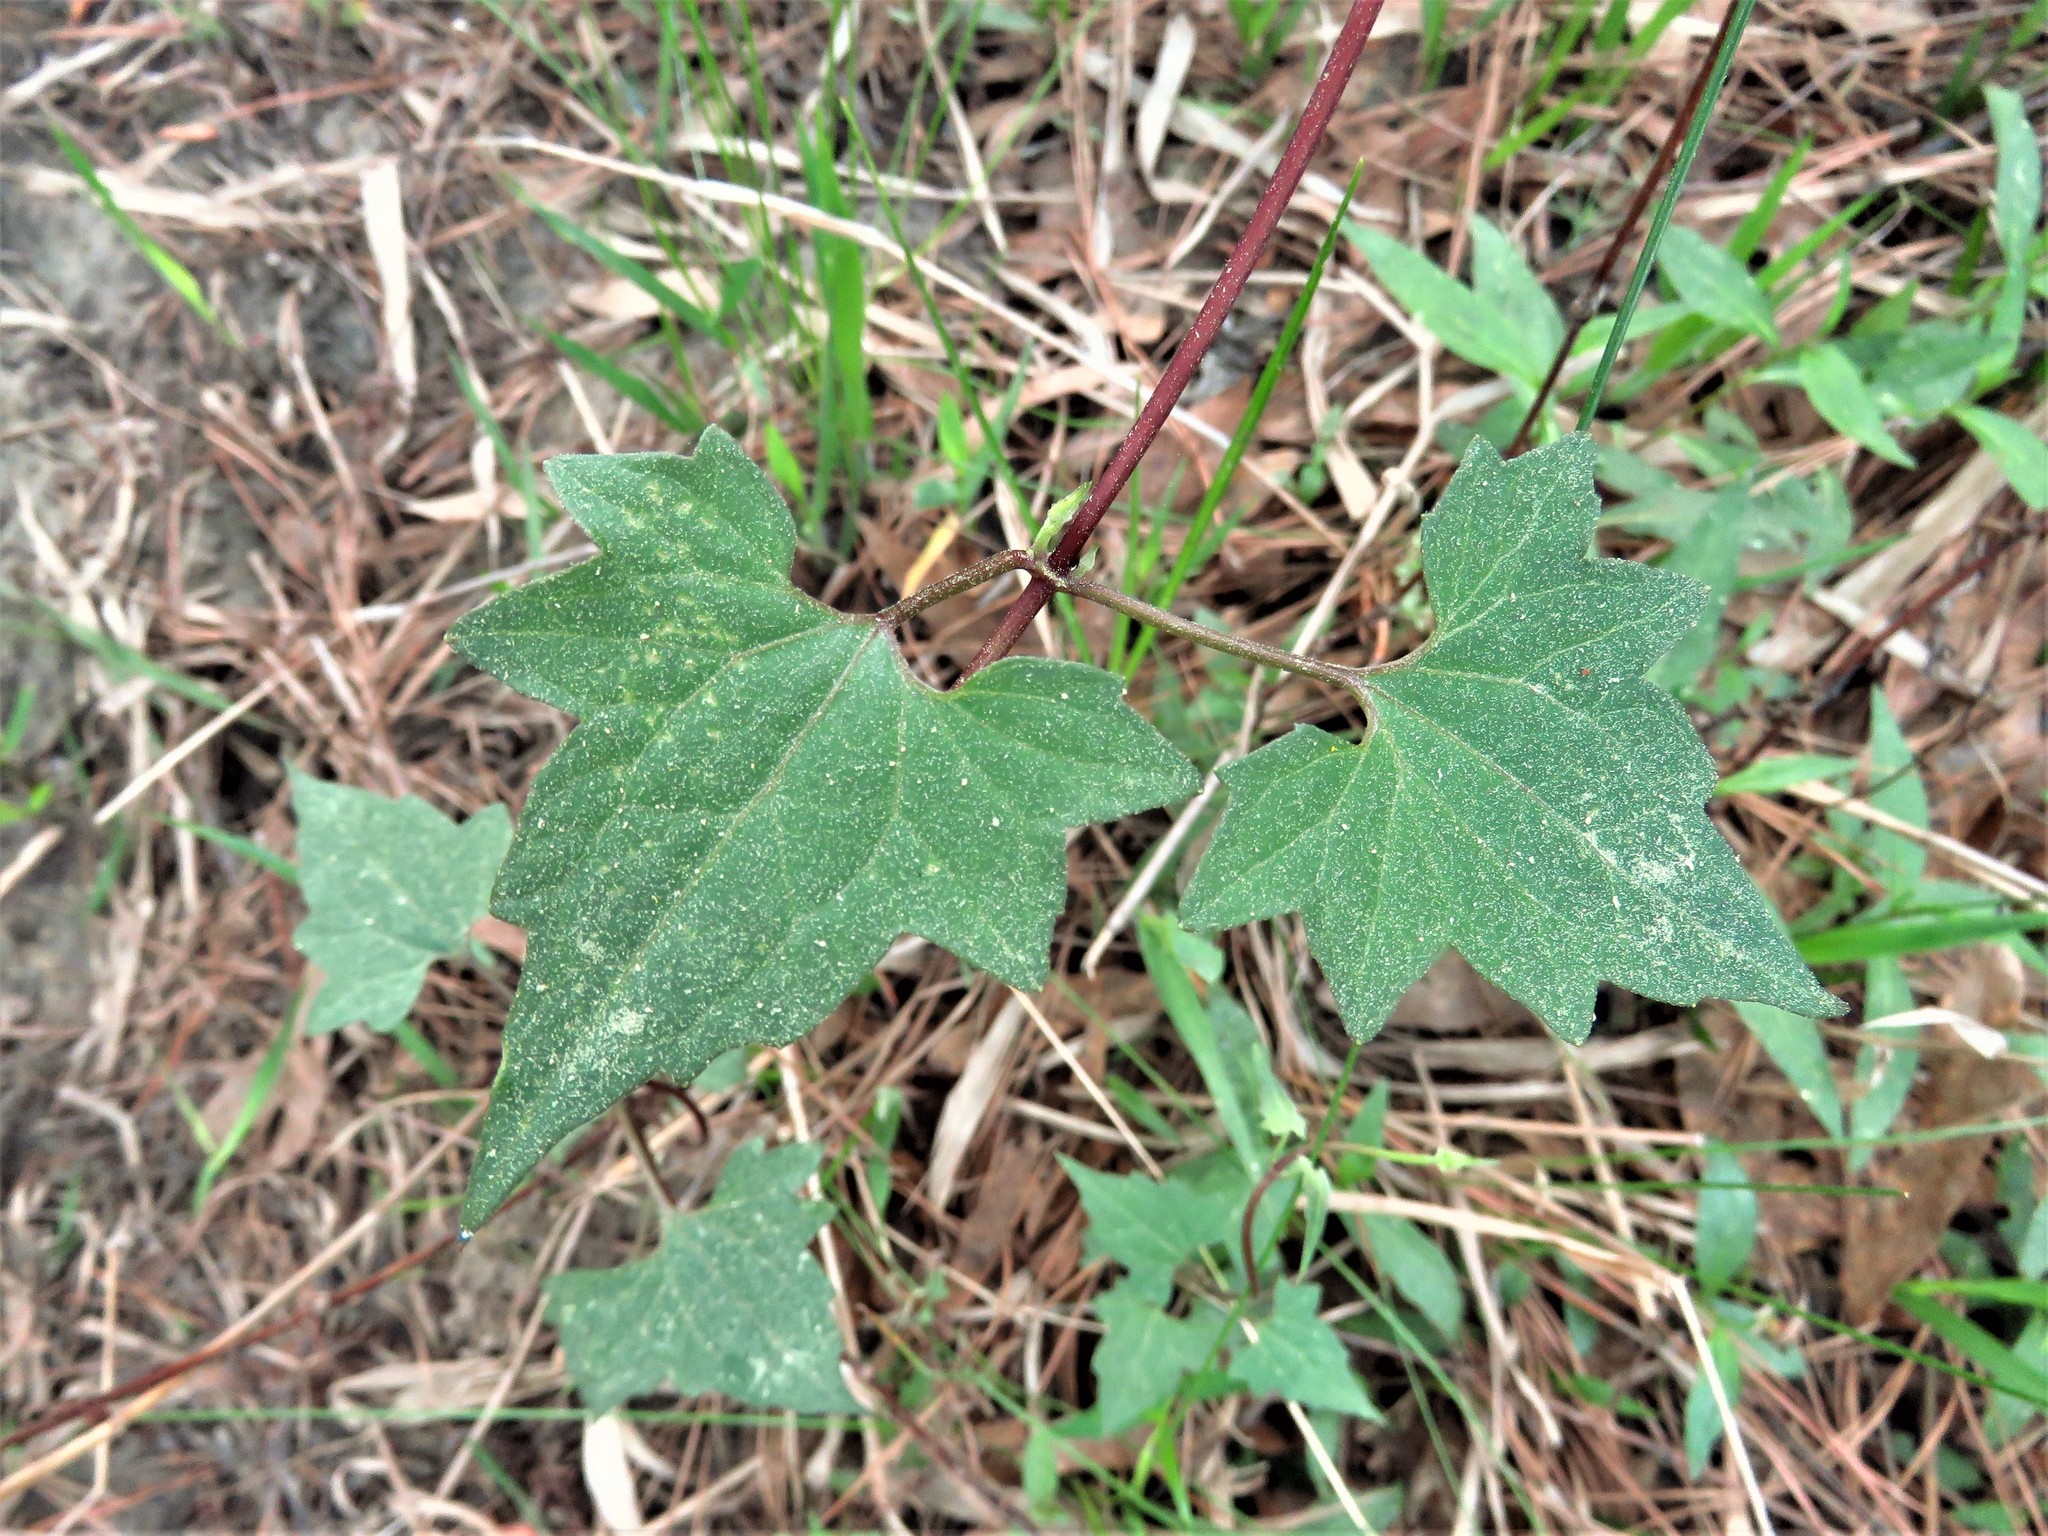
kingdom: Plantae
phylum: Tracheophyta
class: Magnoliopsida
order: Asterales
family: Asteraceae
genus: Mikania
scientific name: Mikania scandens
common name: Climbing hempvine
